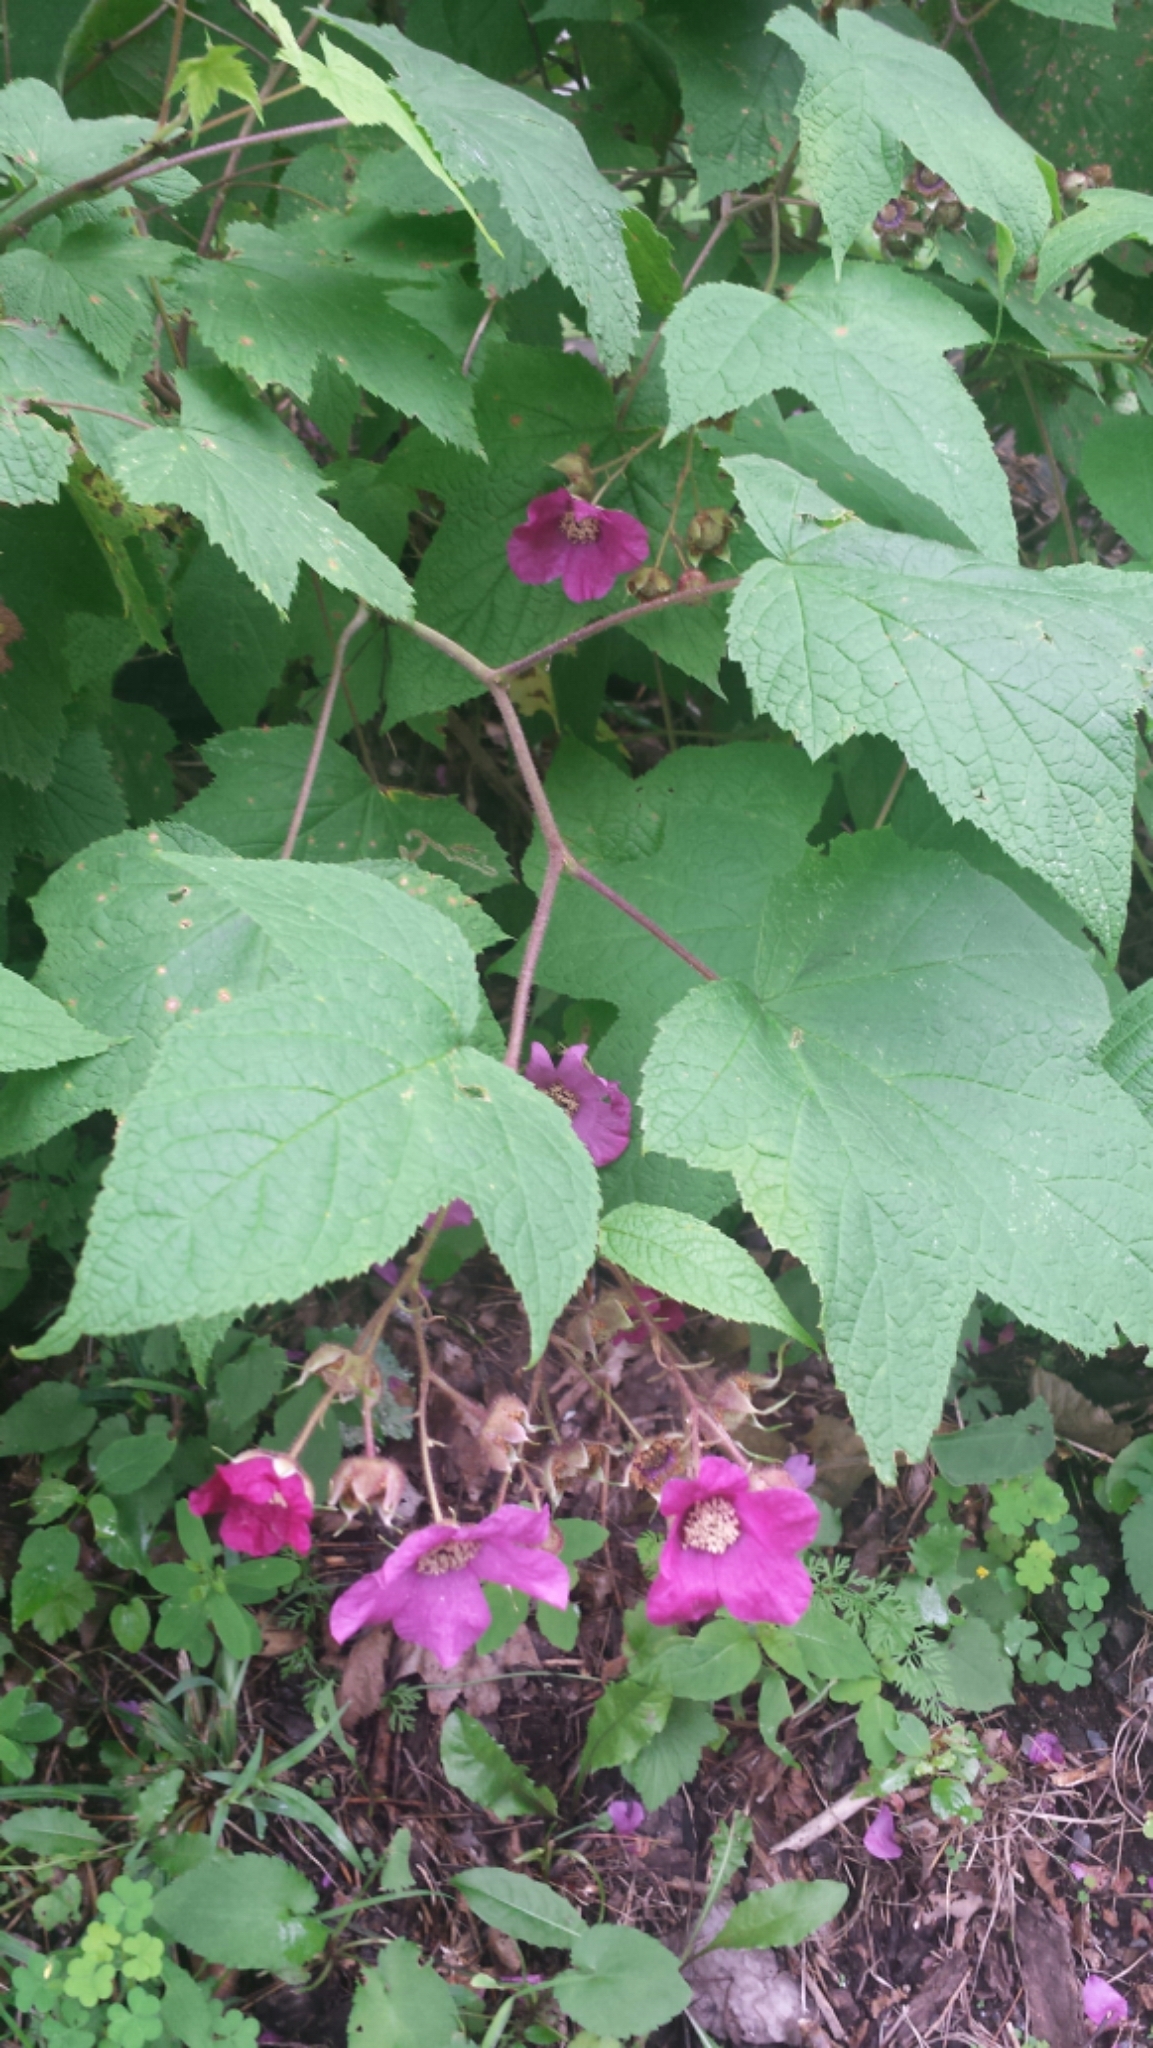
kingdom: Plantae
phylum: Tracheophyta
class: Magnoliopsida
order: Rosales
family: Rosaceae
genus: Rubus
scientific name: Rubus odoratus
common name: Purple-flowered raspberry
